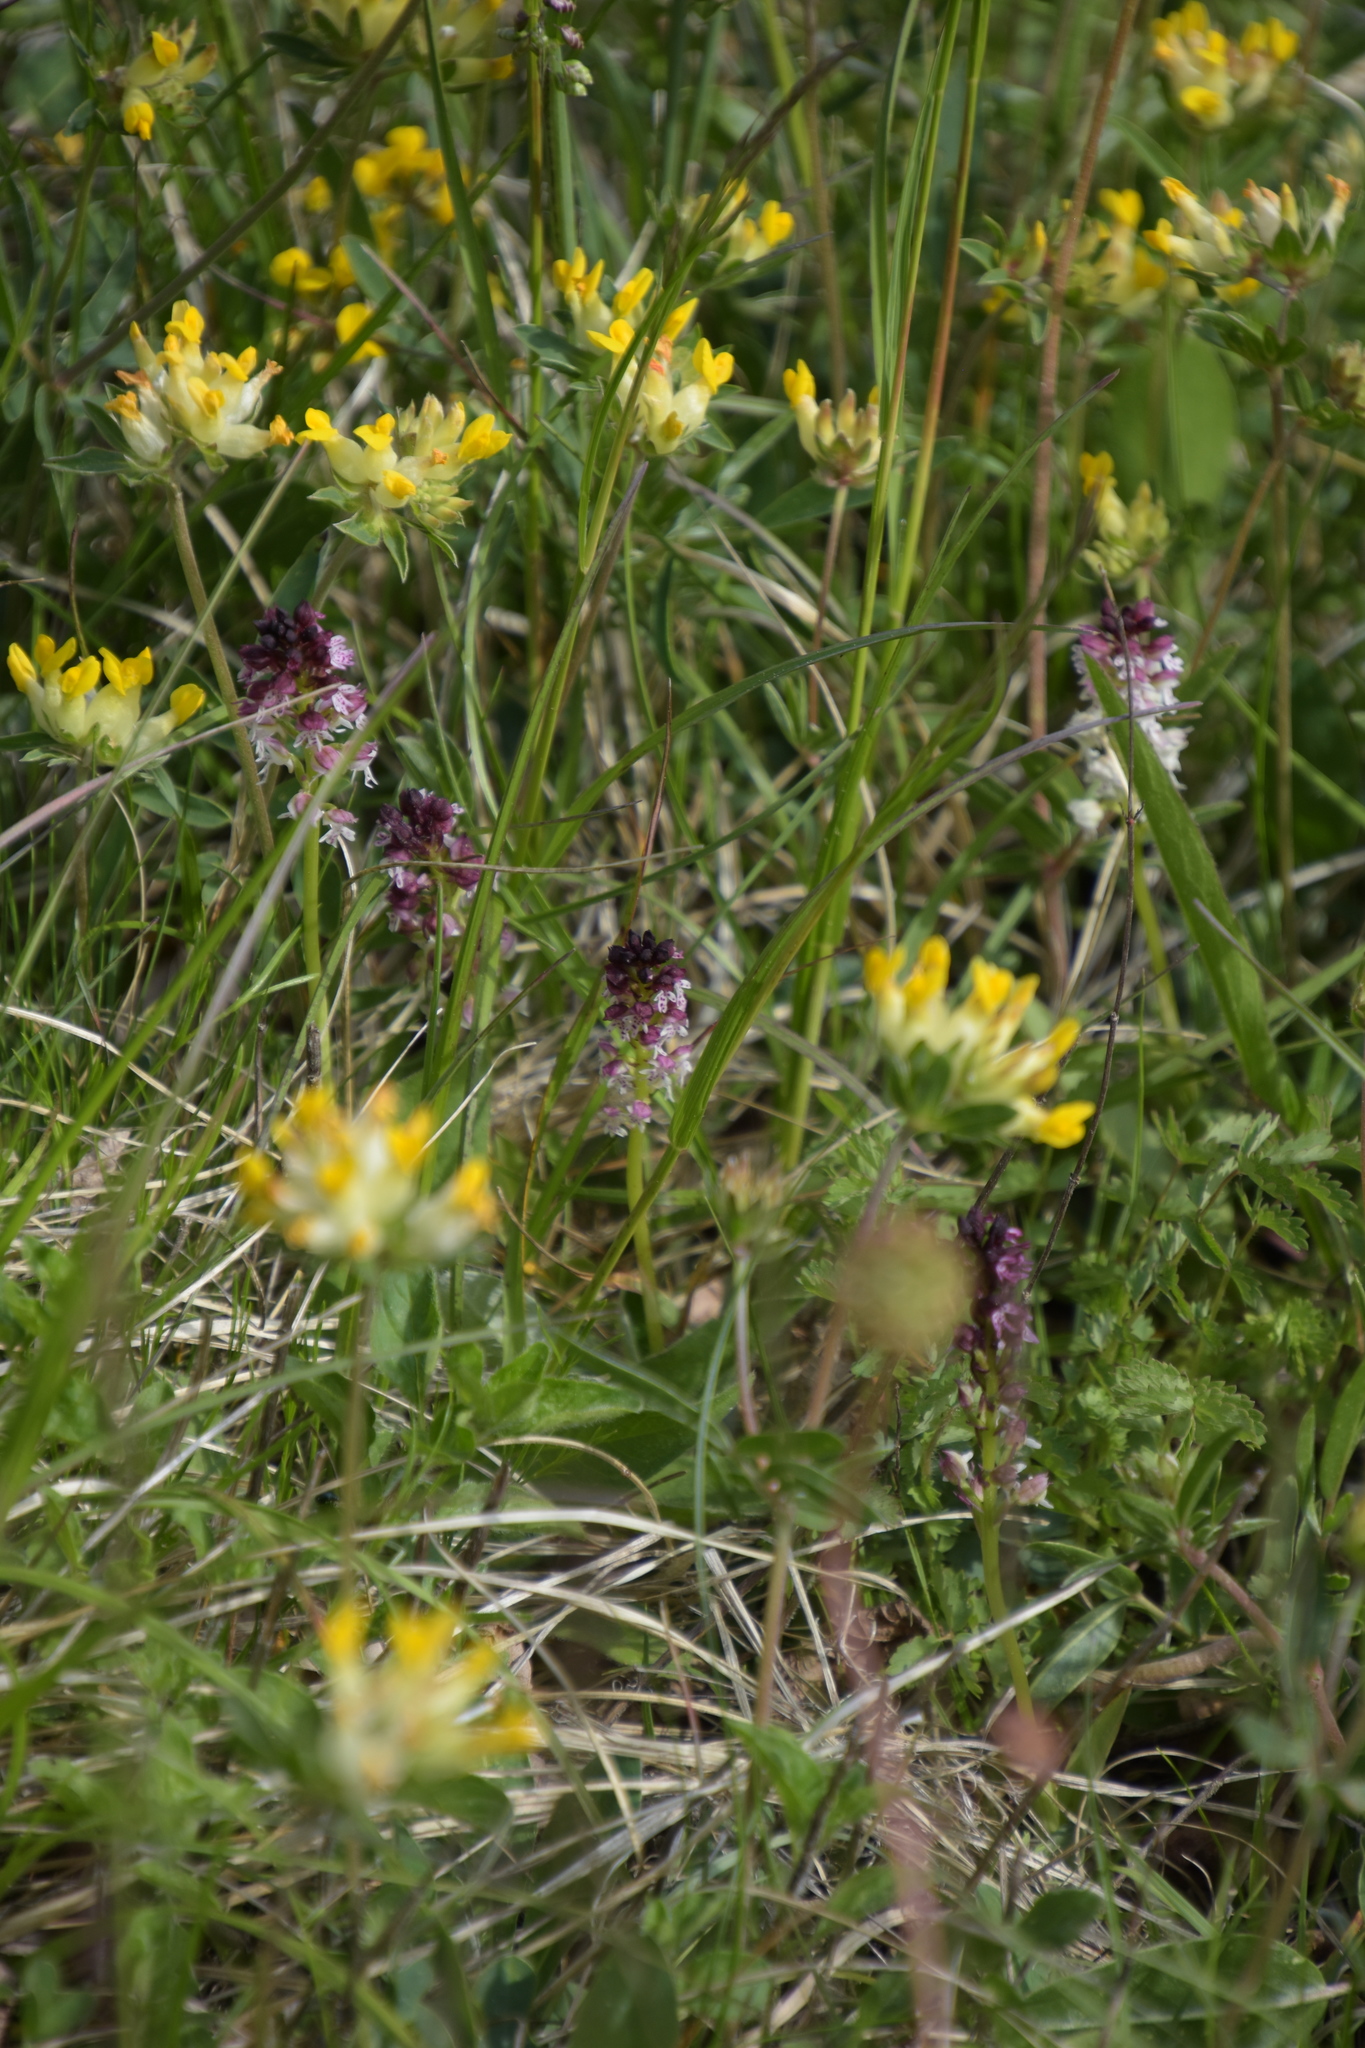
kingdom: Plantae
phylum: Tracheophyta
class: Liliopsida
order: Asparagales
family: Orchidaceae
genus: Neotinea
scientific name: Neotinea ustulata
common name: Burnt orchid
